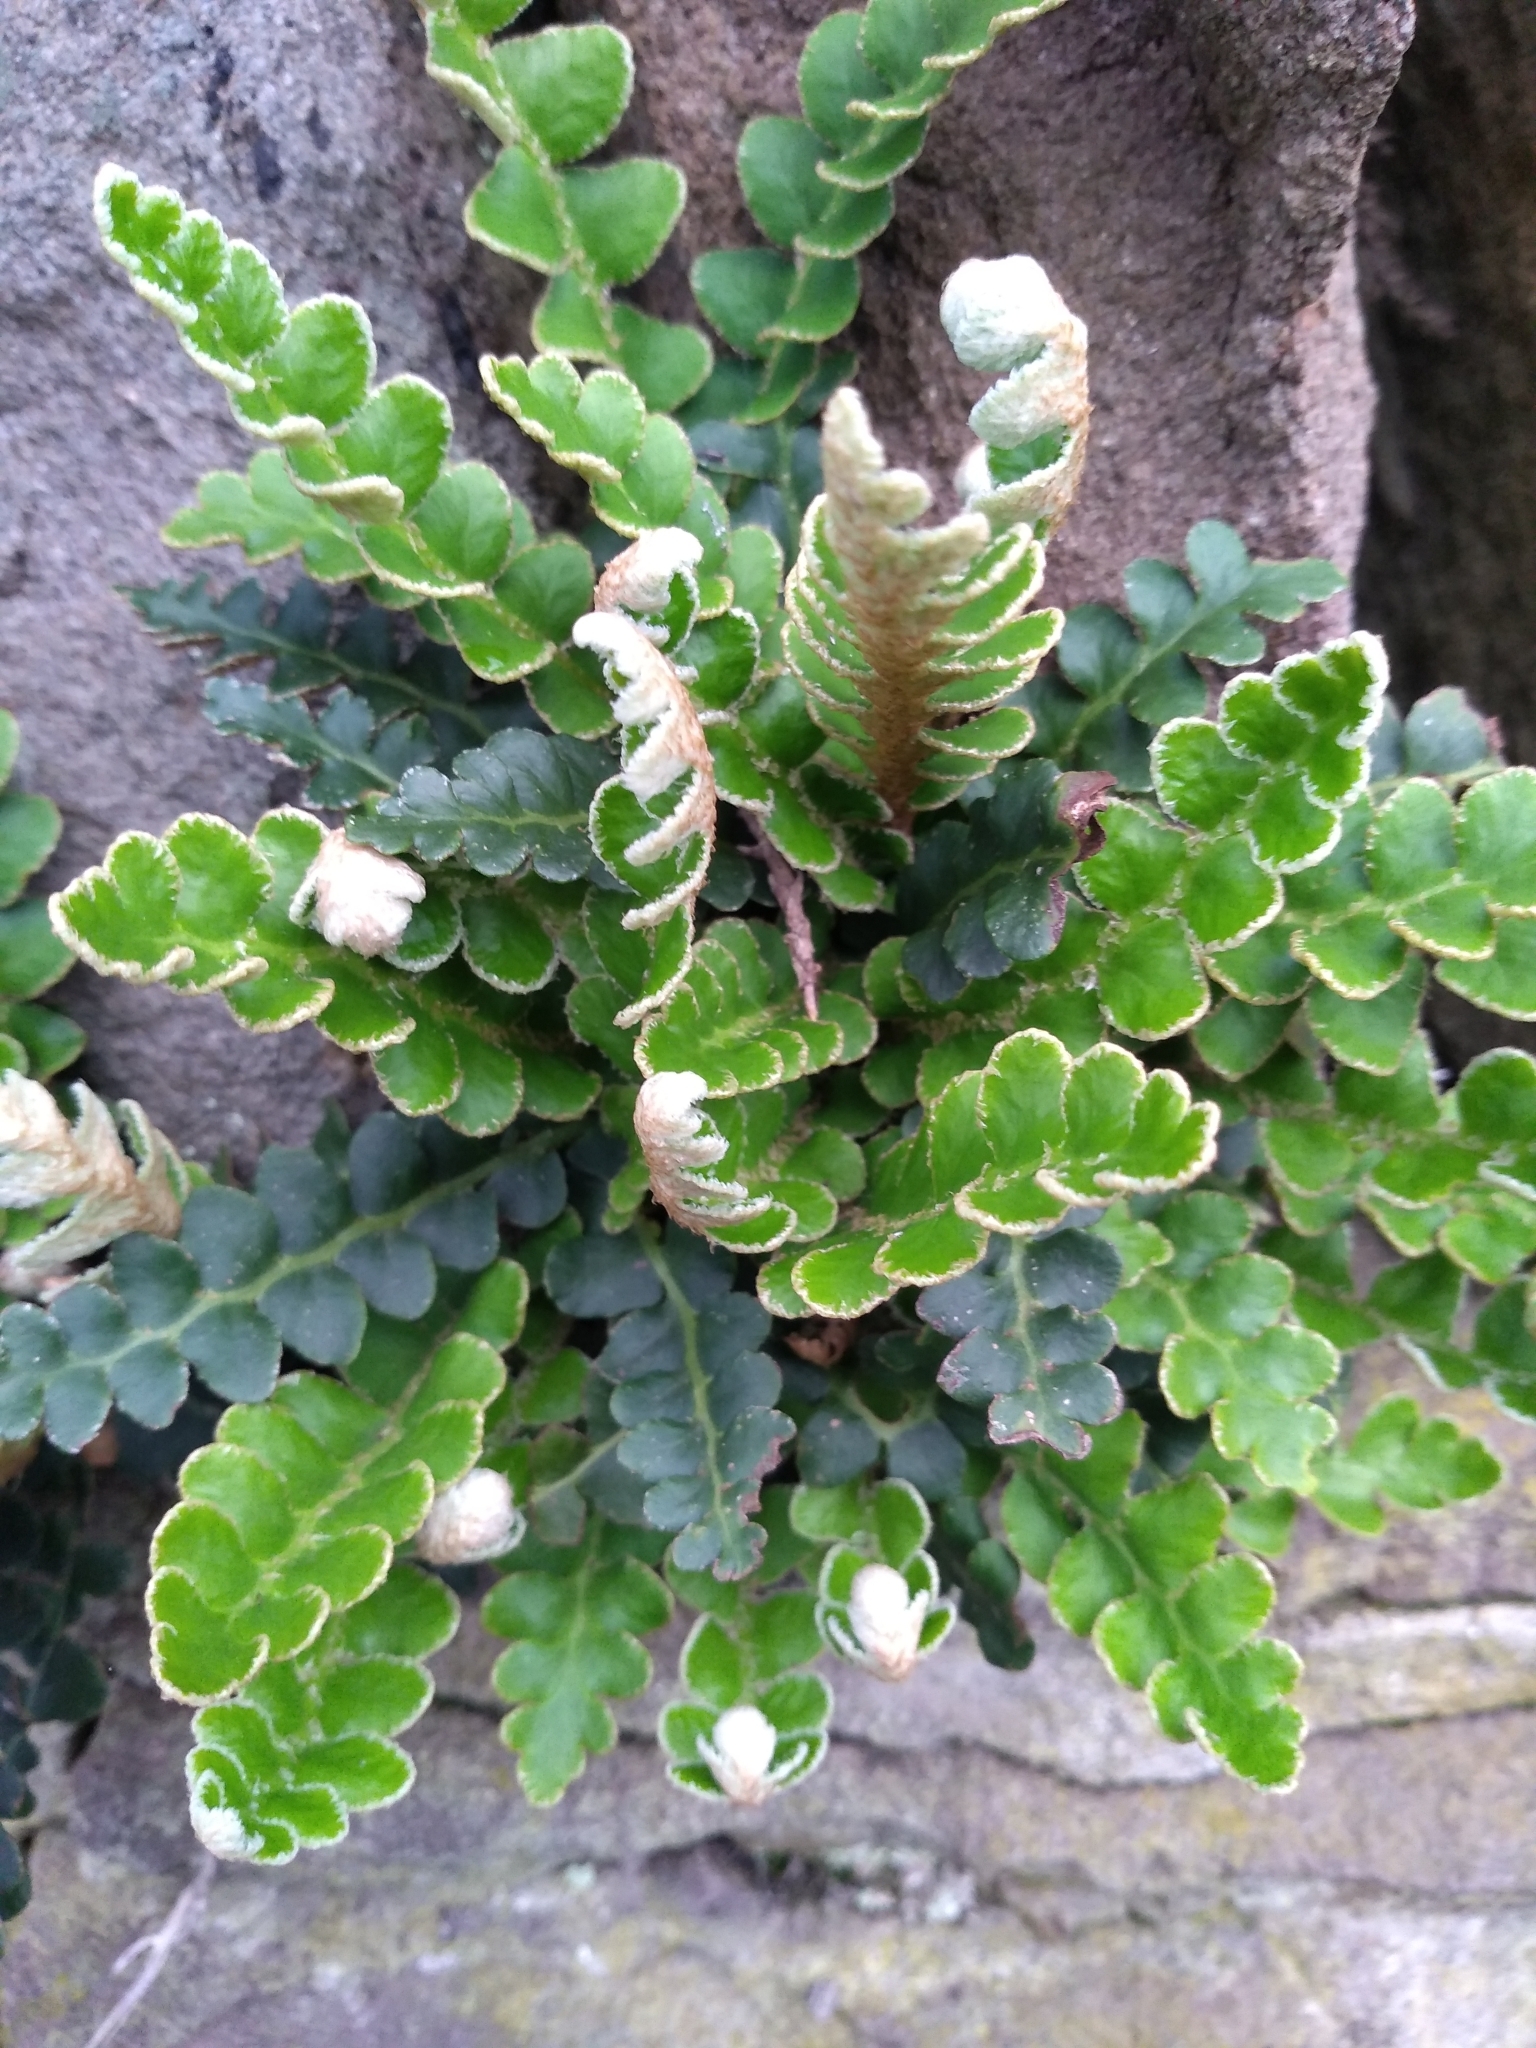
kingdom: Plantae
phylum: Tracheophyta
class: Polypodiopsida
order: Polypodiales
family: Aspleniaceae
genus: Asplenium
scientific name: Asplenium ceterach
